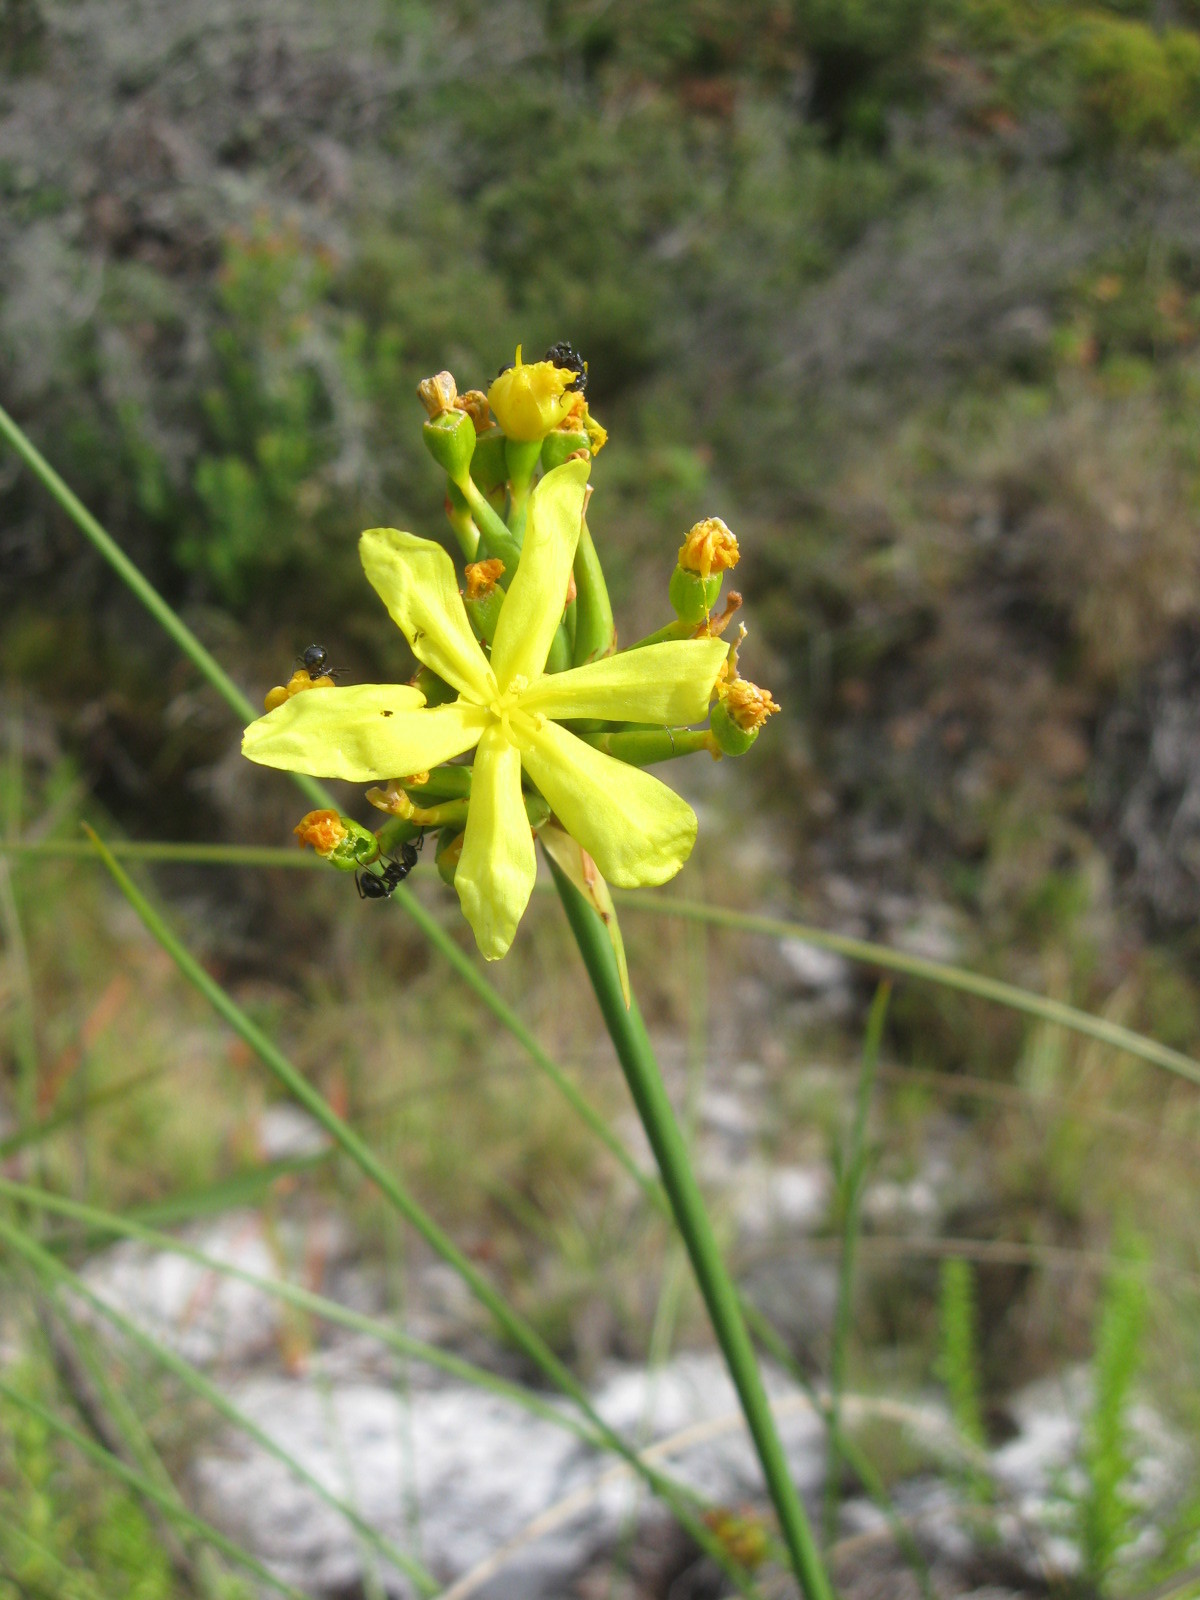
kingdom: Plantae
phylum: Tracheophyta
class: Liliopsida
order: Asparagales
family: Iridaceae
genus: Bobartia
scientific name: Bobartia indica
